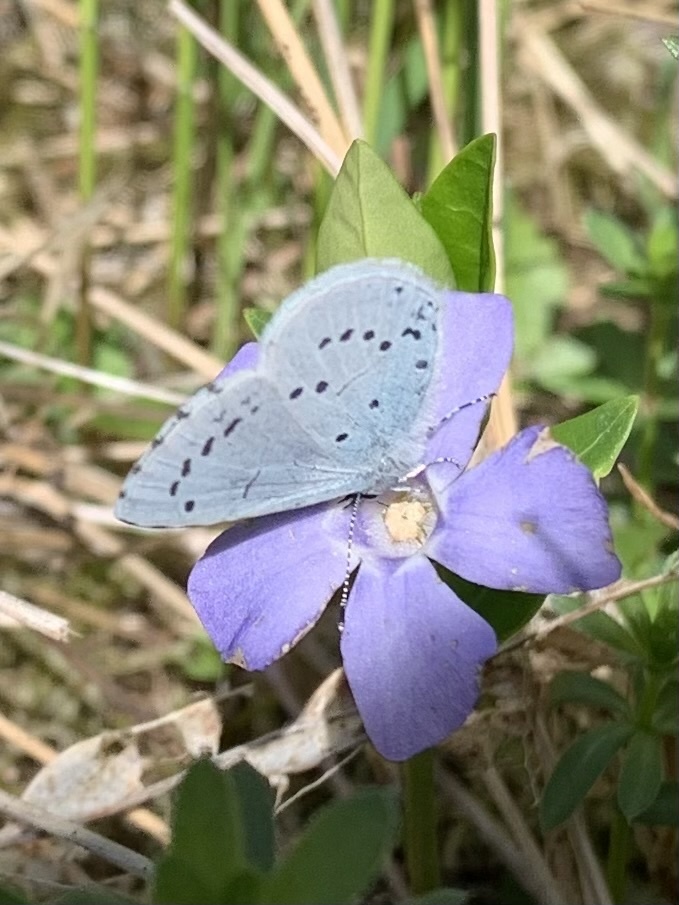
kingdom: Animalia
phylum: Arthropoda
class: Insecta
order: Lepidoptera
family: Lycaenidae
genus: Celastrina
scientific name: Celastrina argiolus
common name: Holly blue
